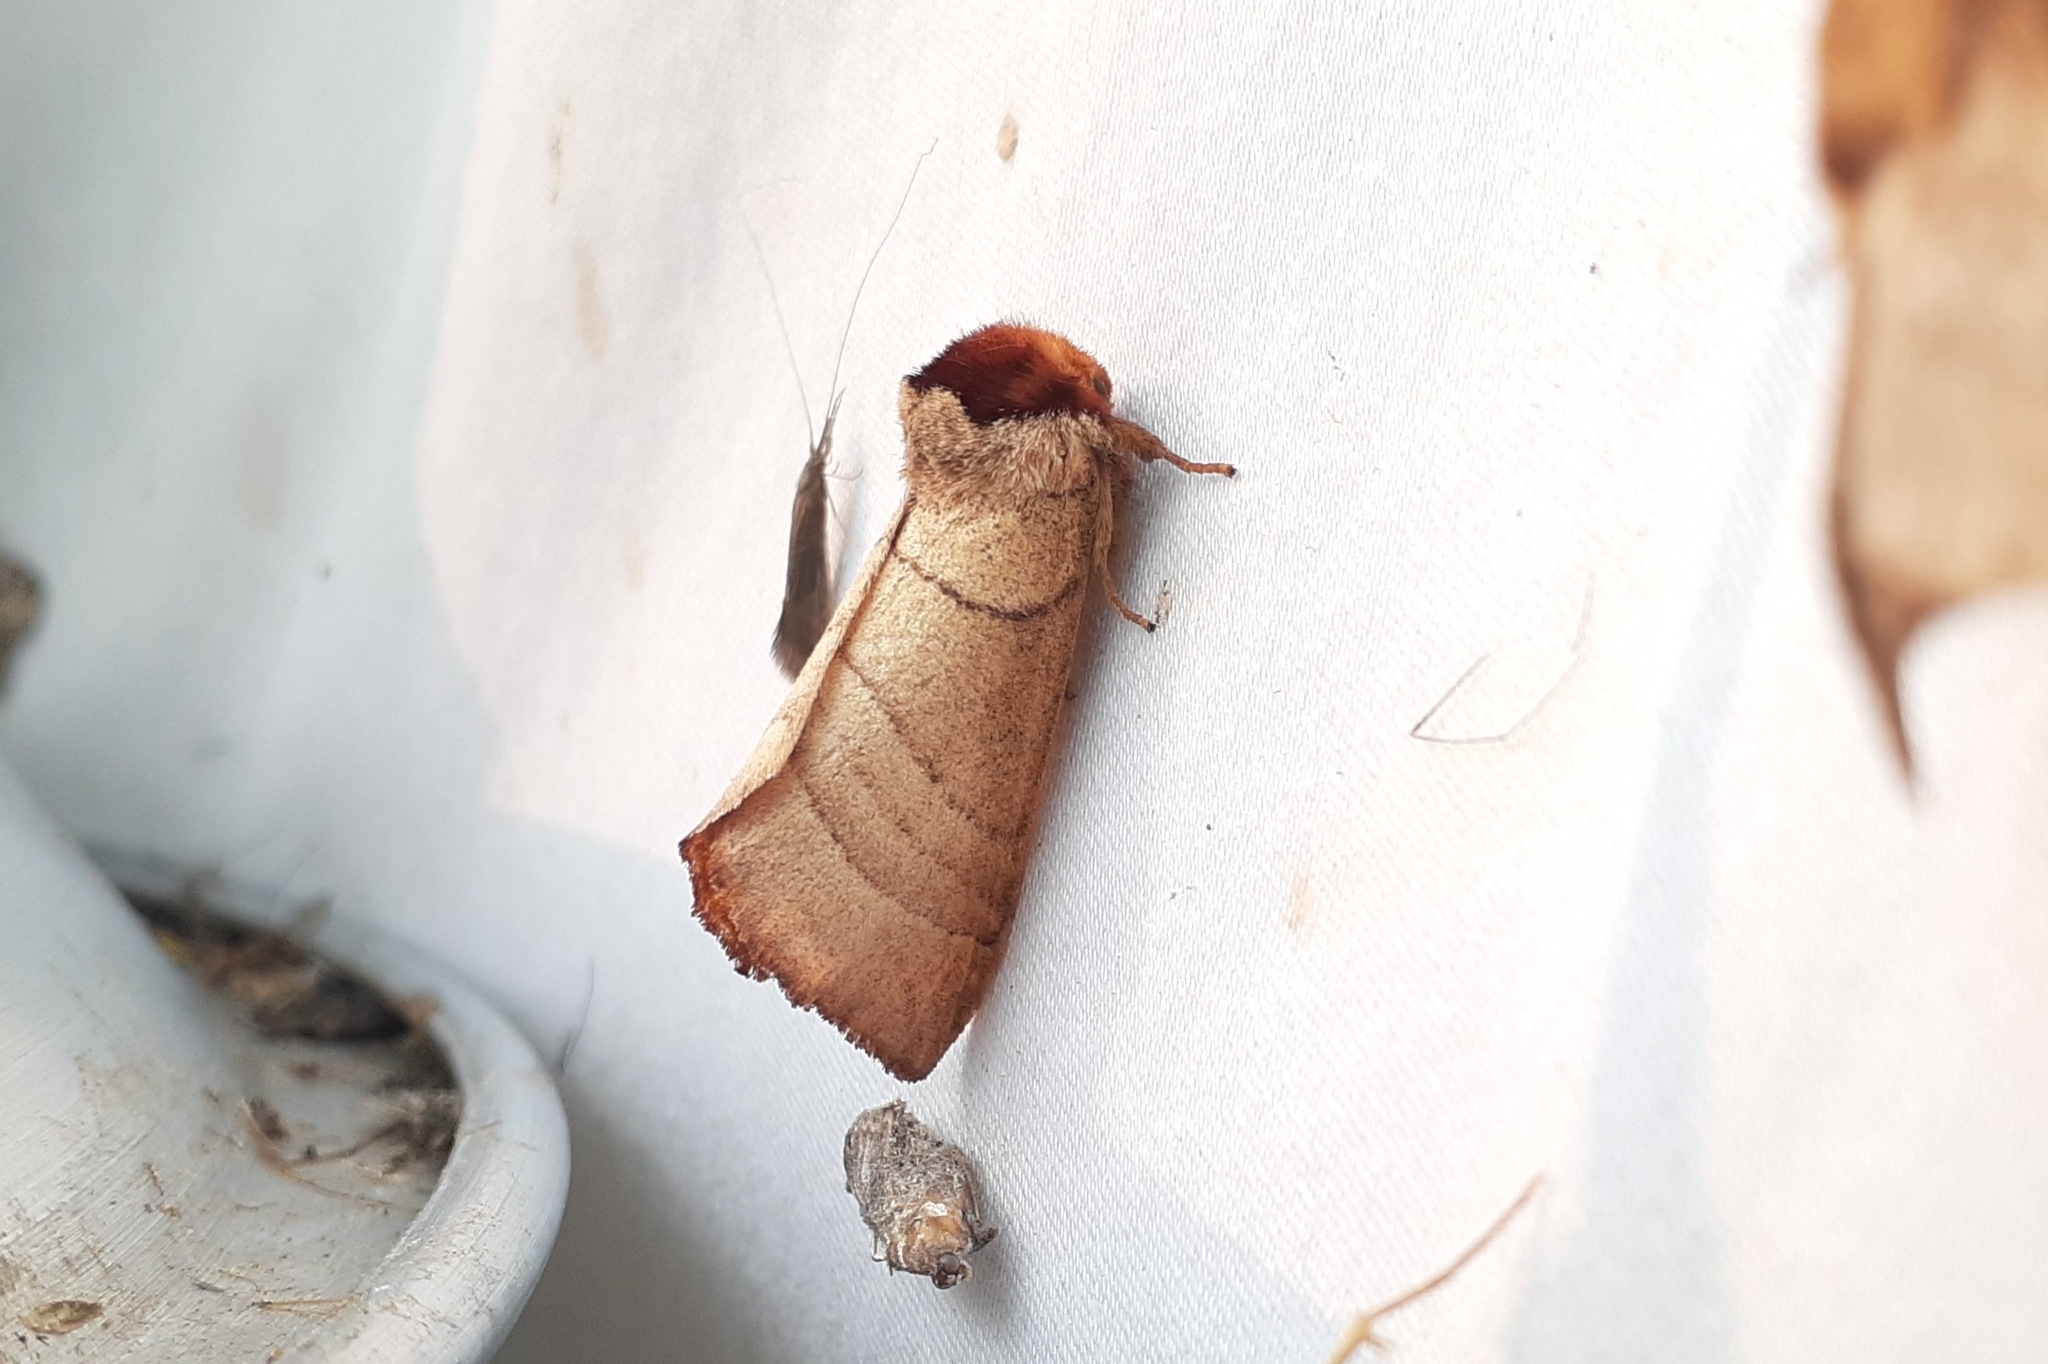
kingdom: Animalia
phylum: Arthropoda
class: Insecta
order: Lepidoptera
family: Notodontidae
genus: Datana
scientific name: Datana ministra
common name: Yellow-necked caterpillar moth
